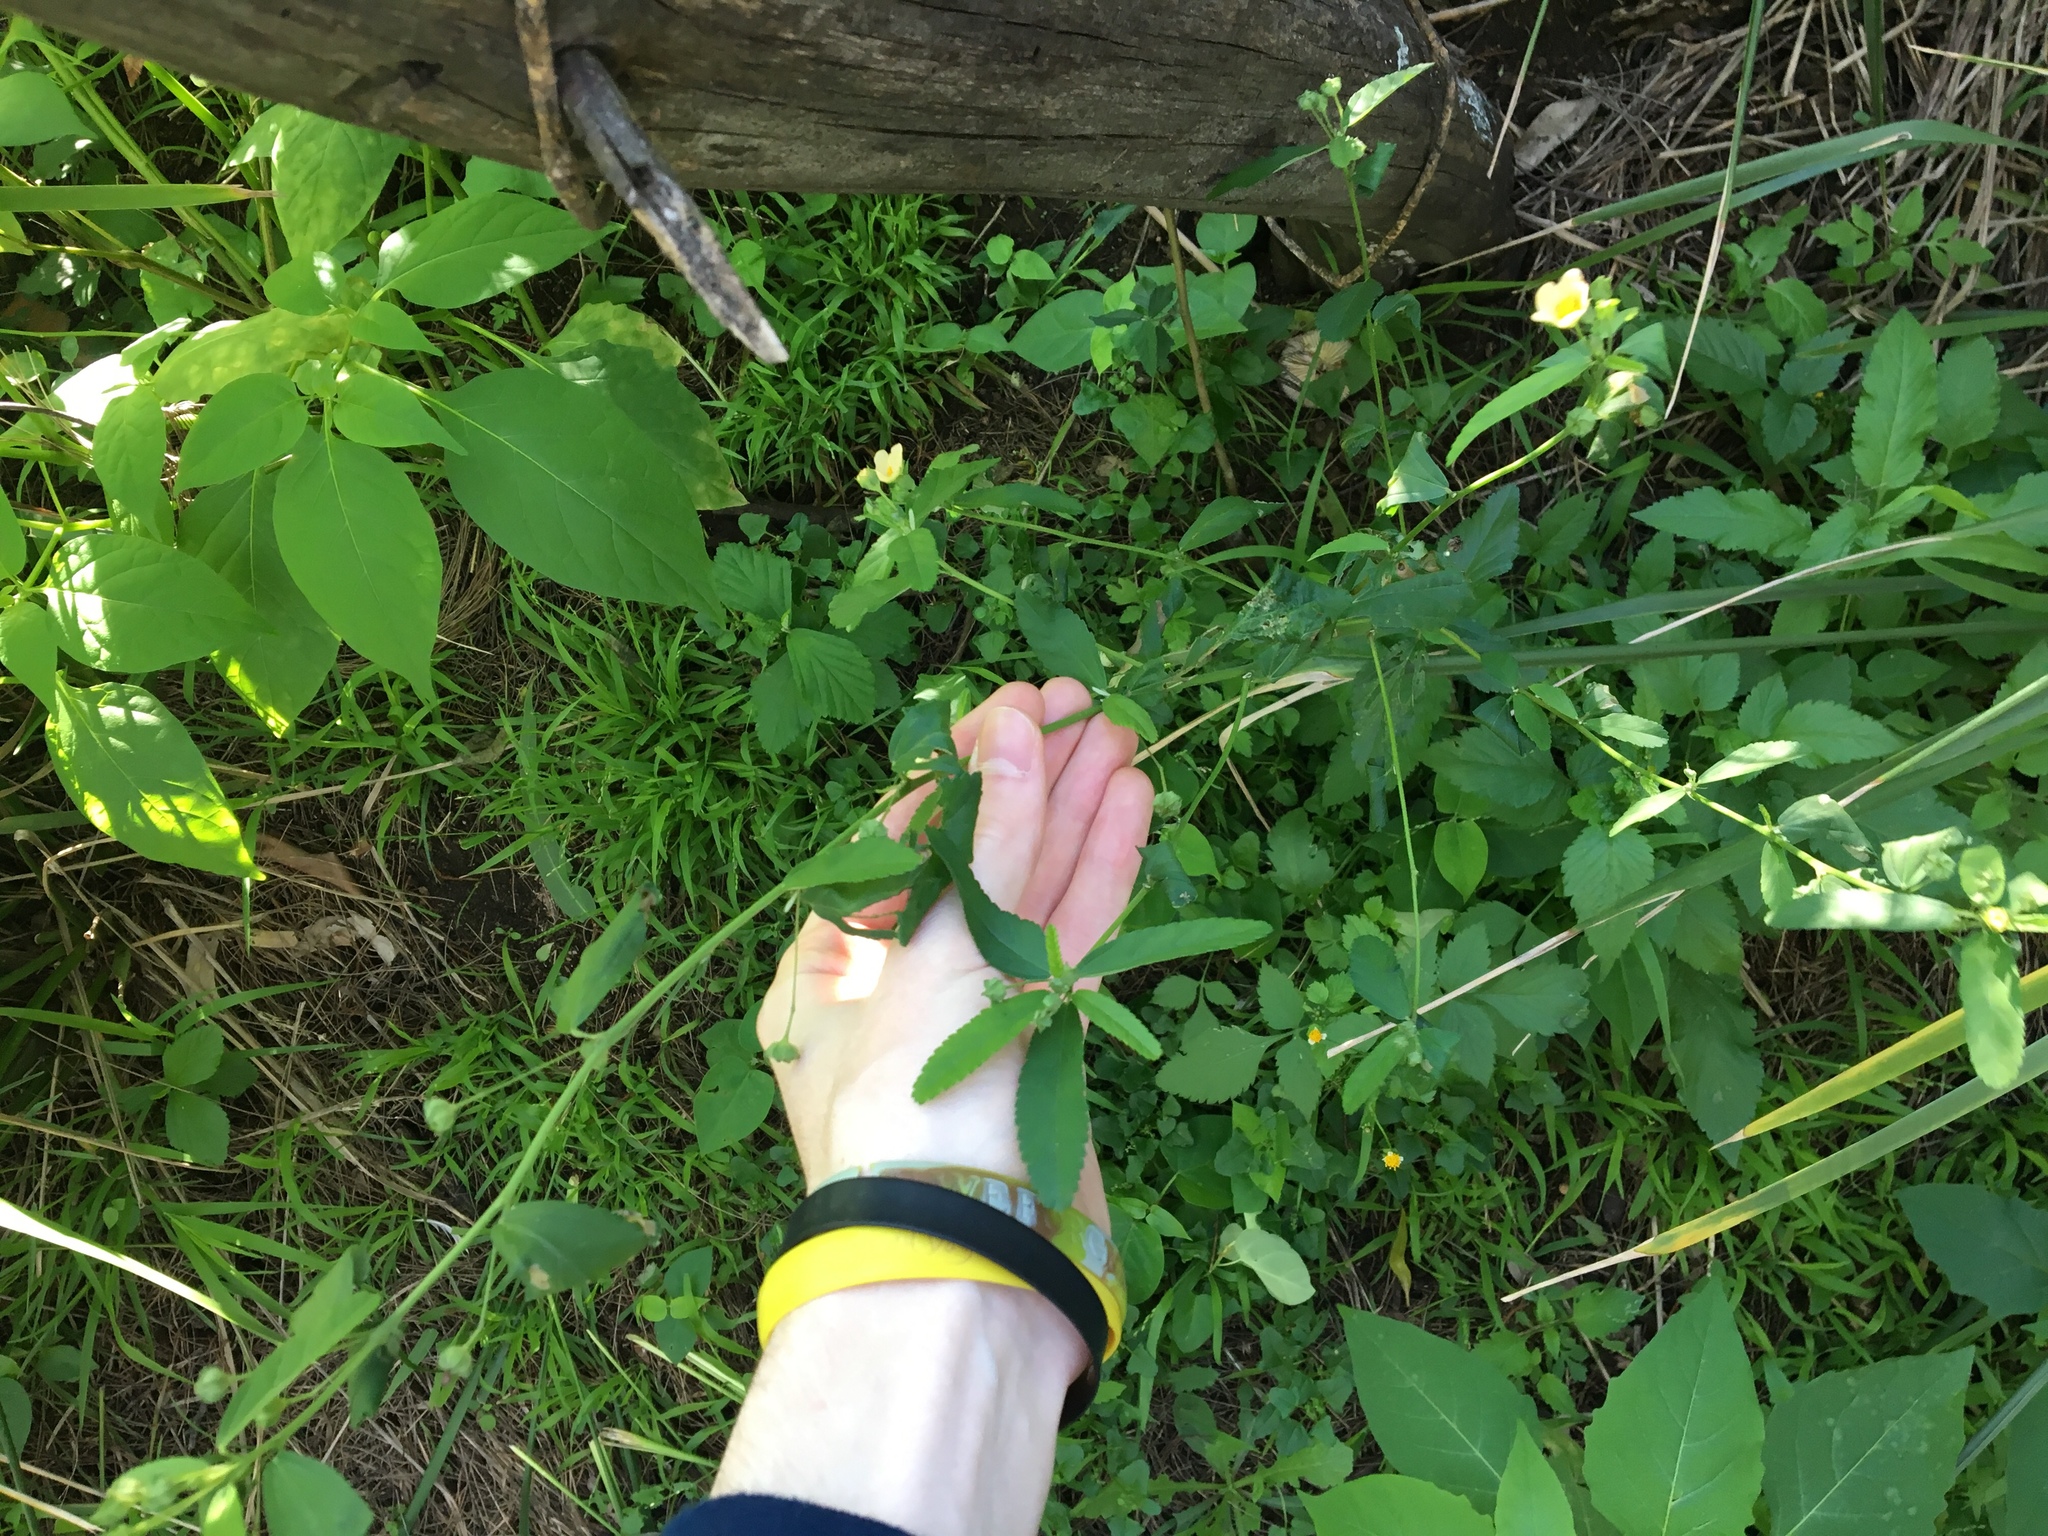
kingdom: Plantae
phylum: Tracheophyta
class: Magnoliopsida
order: Malvales
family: Malvaceae
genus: Sida
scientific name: Sida rhombifolia
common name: Queensland-hemp
